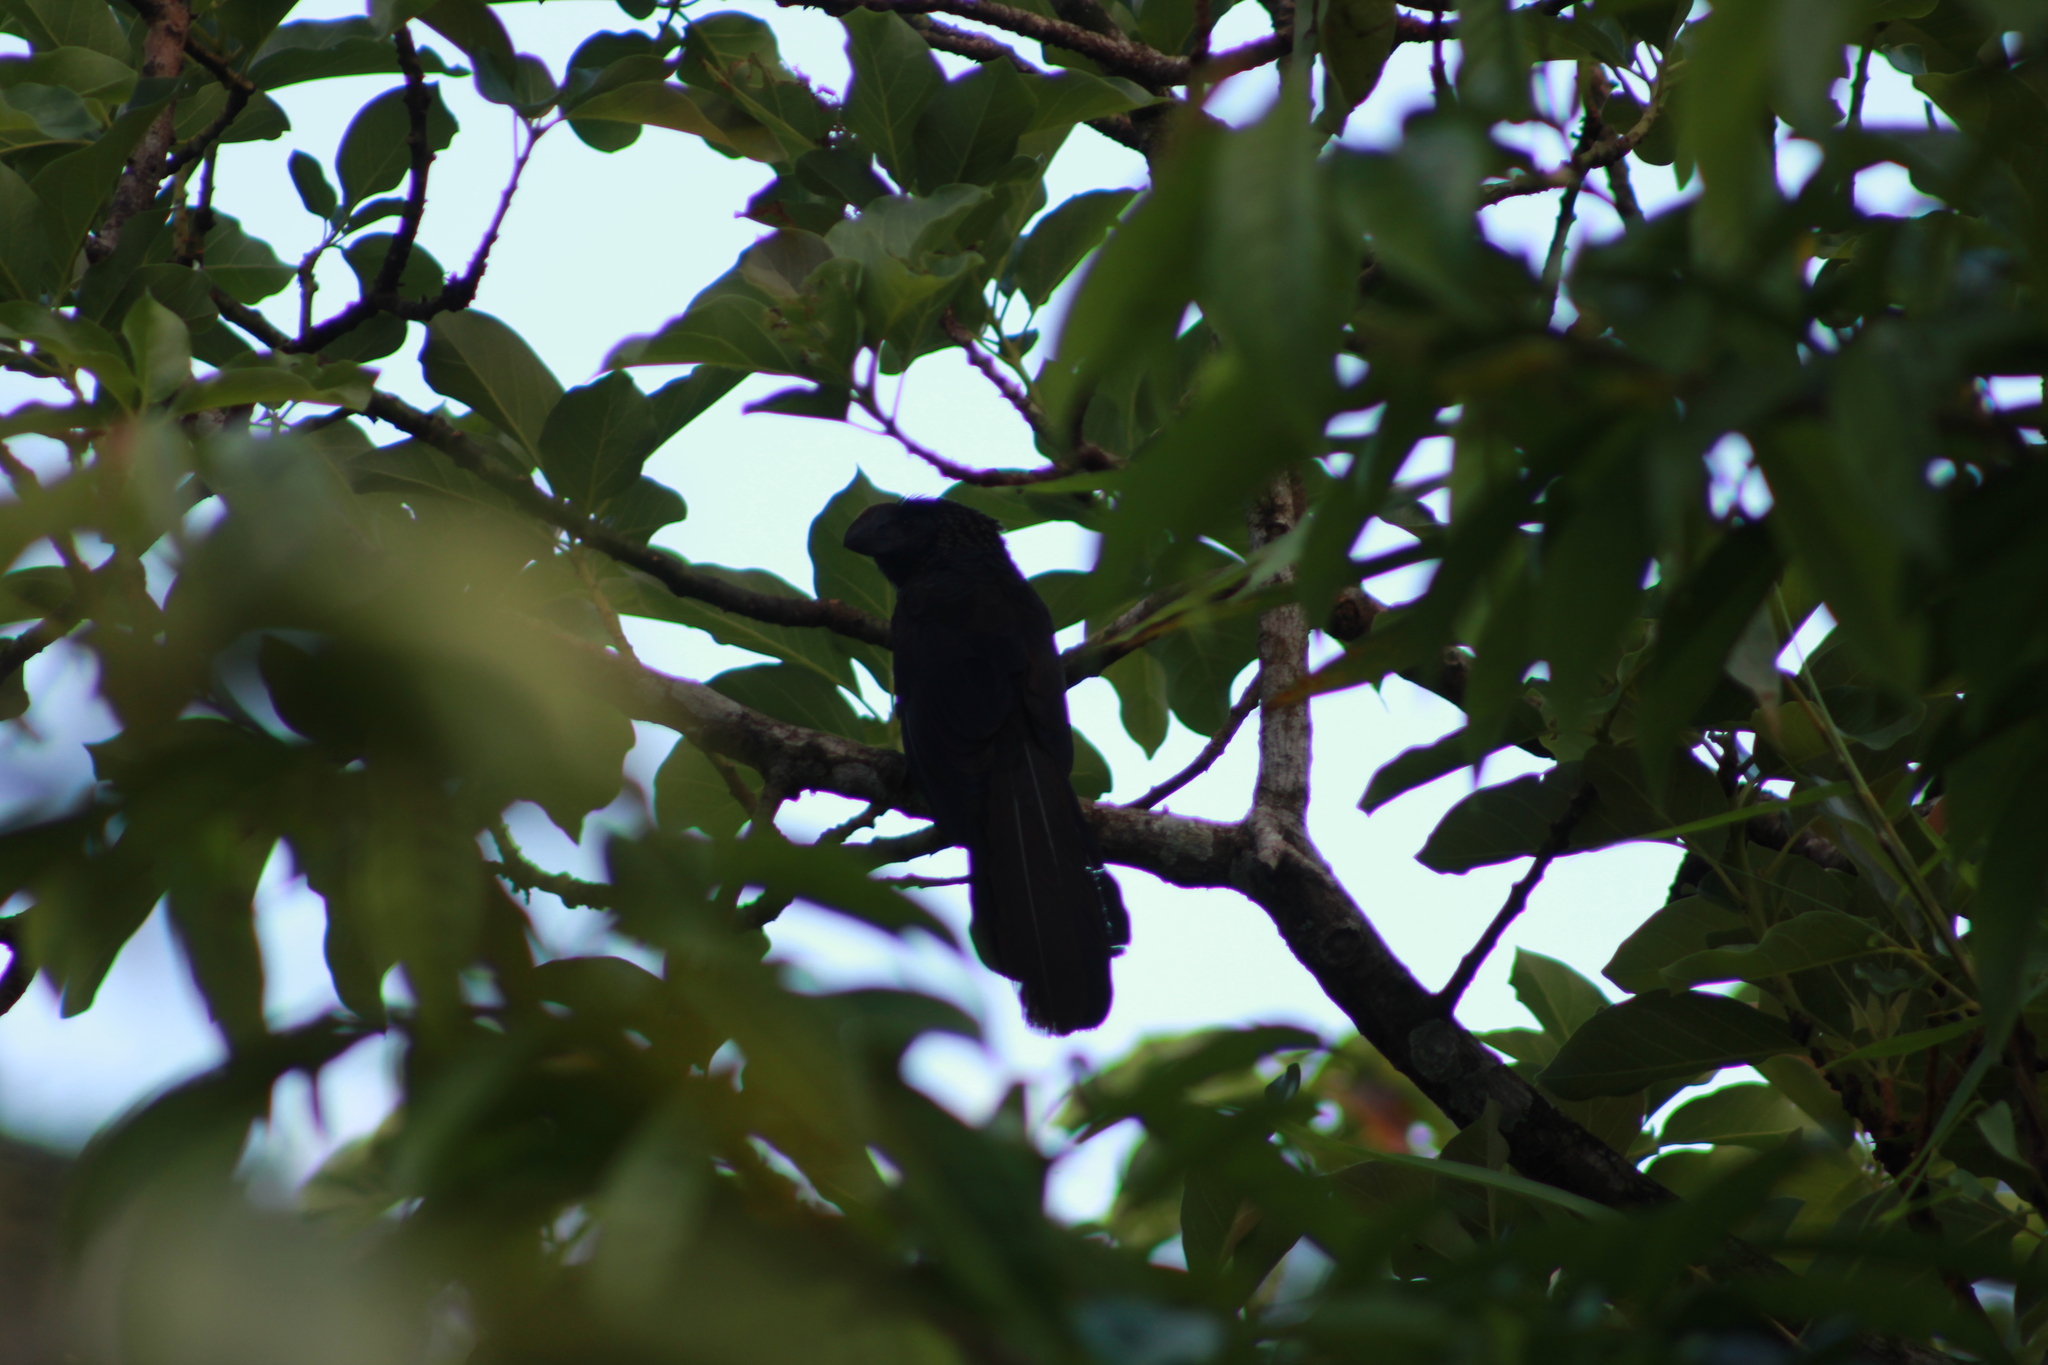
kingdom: Animalia
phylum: Chordata
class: Aves
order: Cuculiformes
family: Cuculidae
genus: Crotophaga
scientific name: Crotophaga ani
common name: Smooth-billed ani
